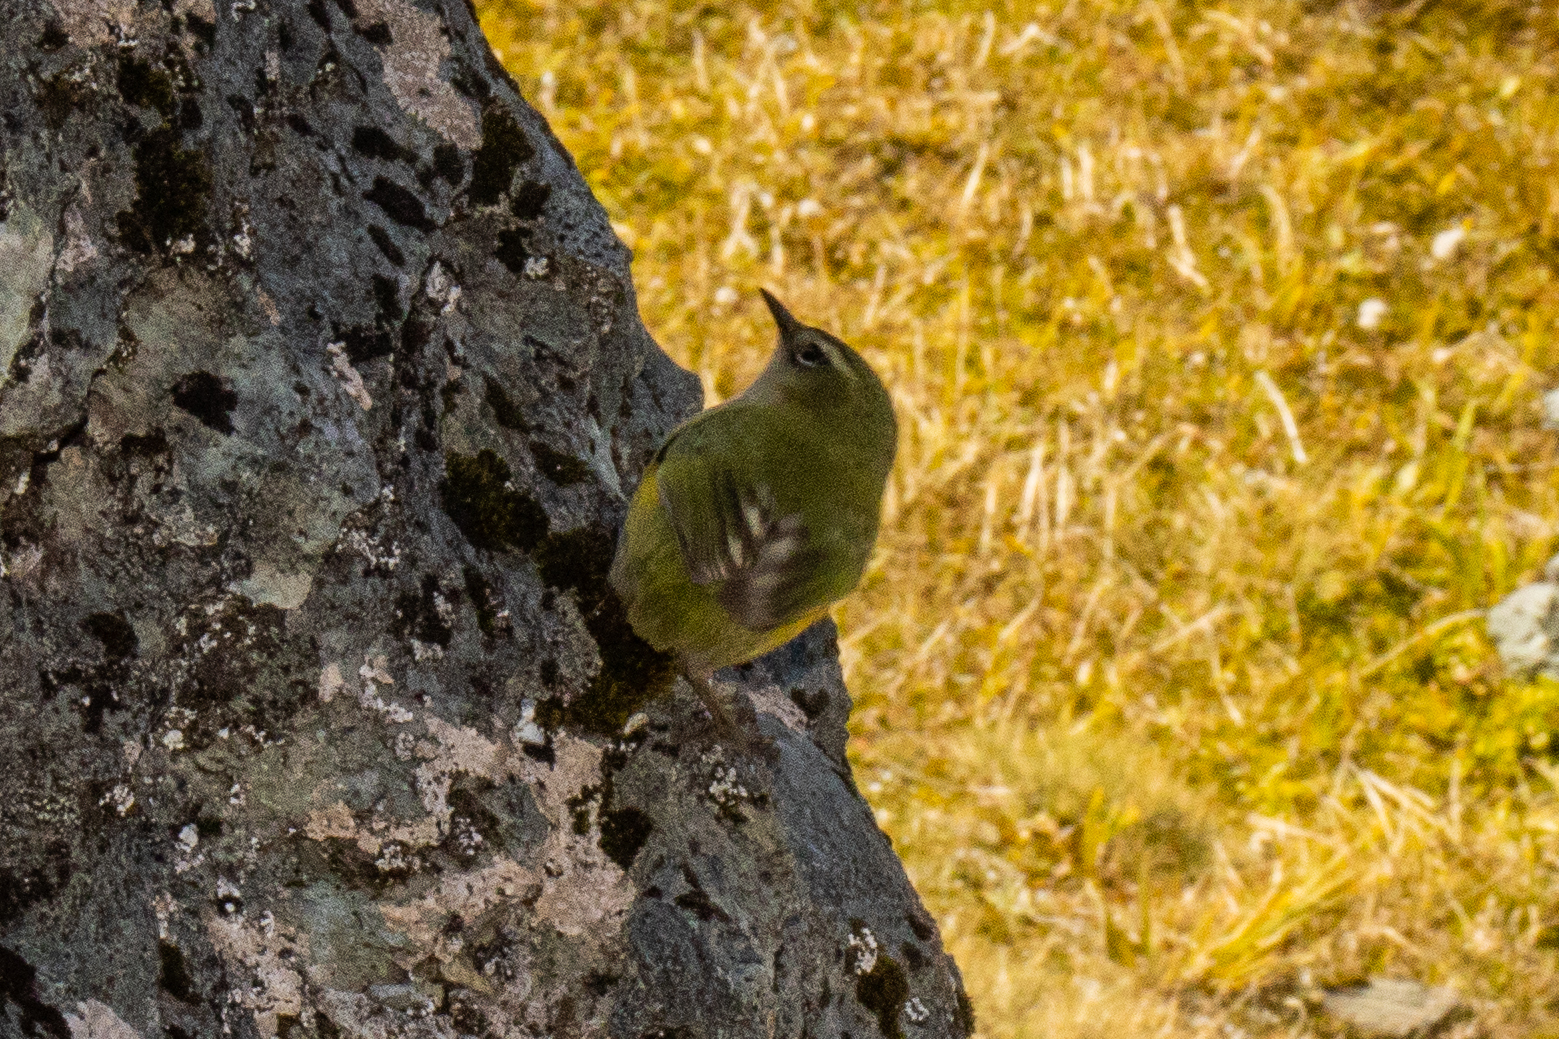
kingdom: Animalia
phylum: Chordata
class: Aves
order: Passeriformes
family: Acanthisittidae
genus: Xenicus
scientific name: Xenicus gilviventris
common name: New zealand rockwren
